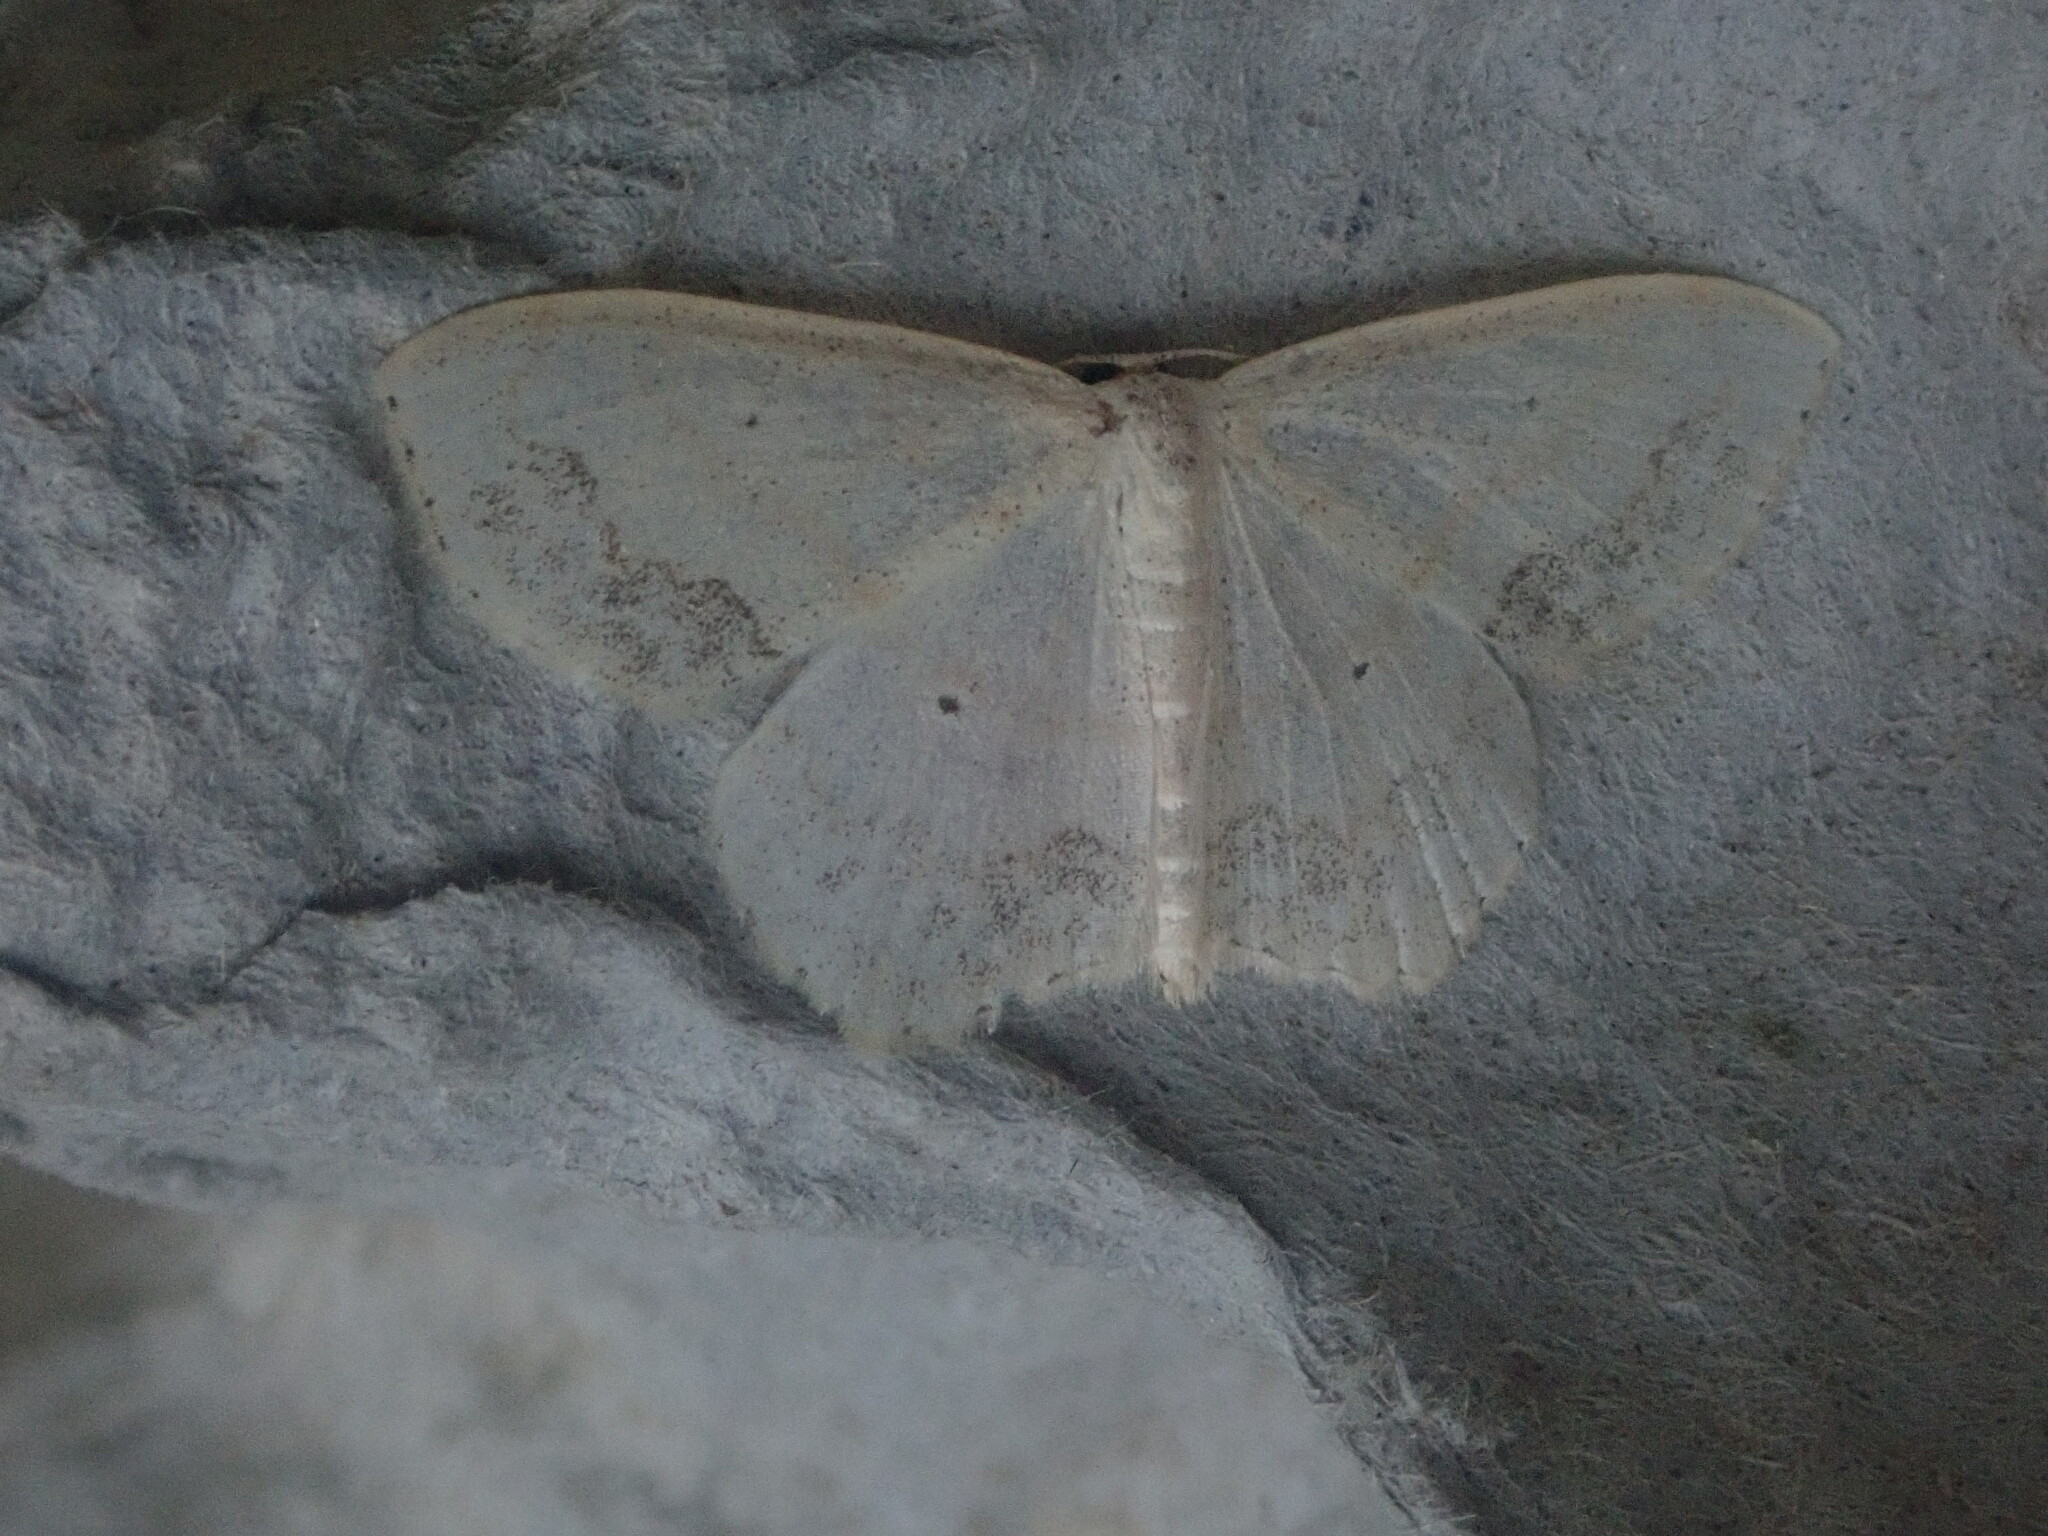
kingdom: Animalia
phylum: Arthropoda
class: Insecta
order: Lepidoptera
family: Geometridae
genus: Scopula
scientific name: Scopula limboundata
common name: Large lace border
